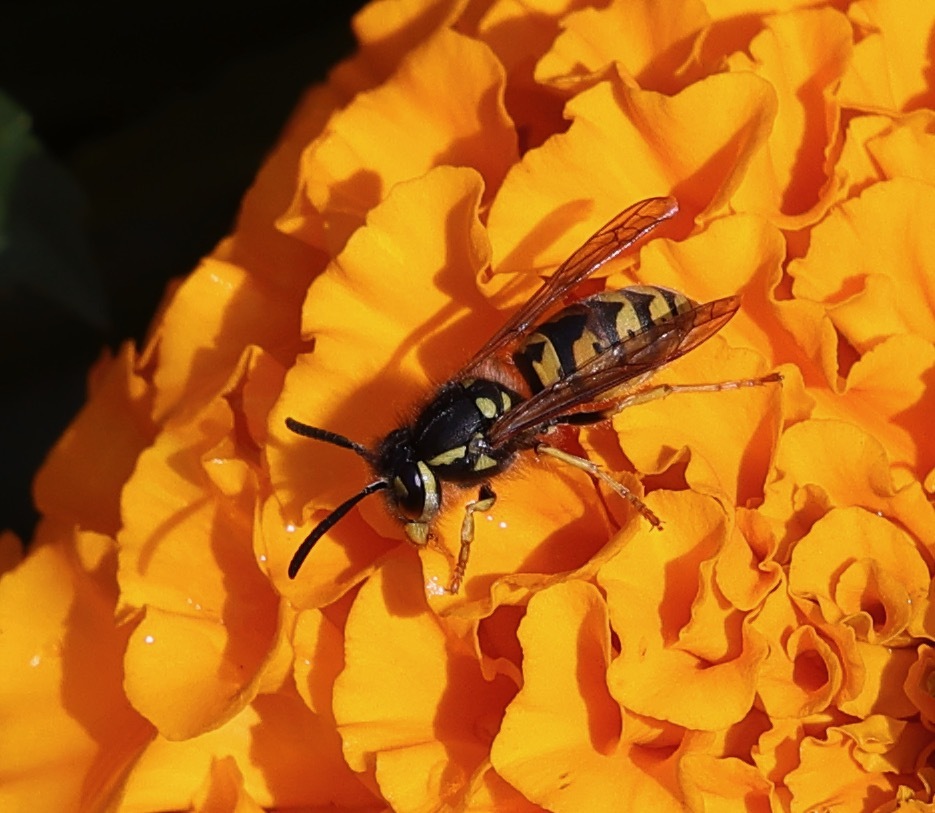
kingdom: Animalia
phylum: Arthropoda
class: Insecta
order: Hymenoptera
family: Vespidae
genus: Vespula
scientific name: Vespula germanica
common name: German wasp
